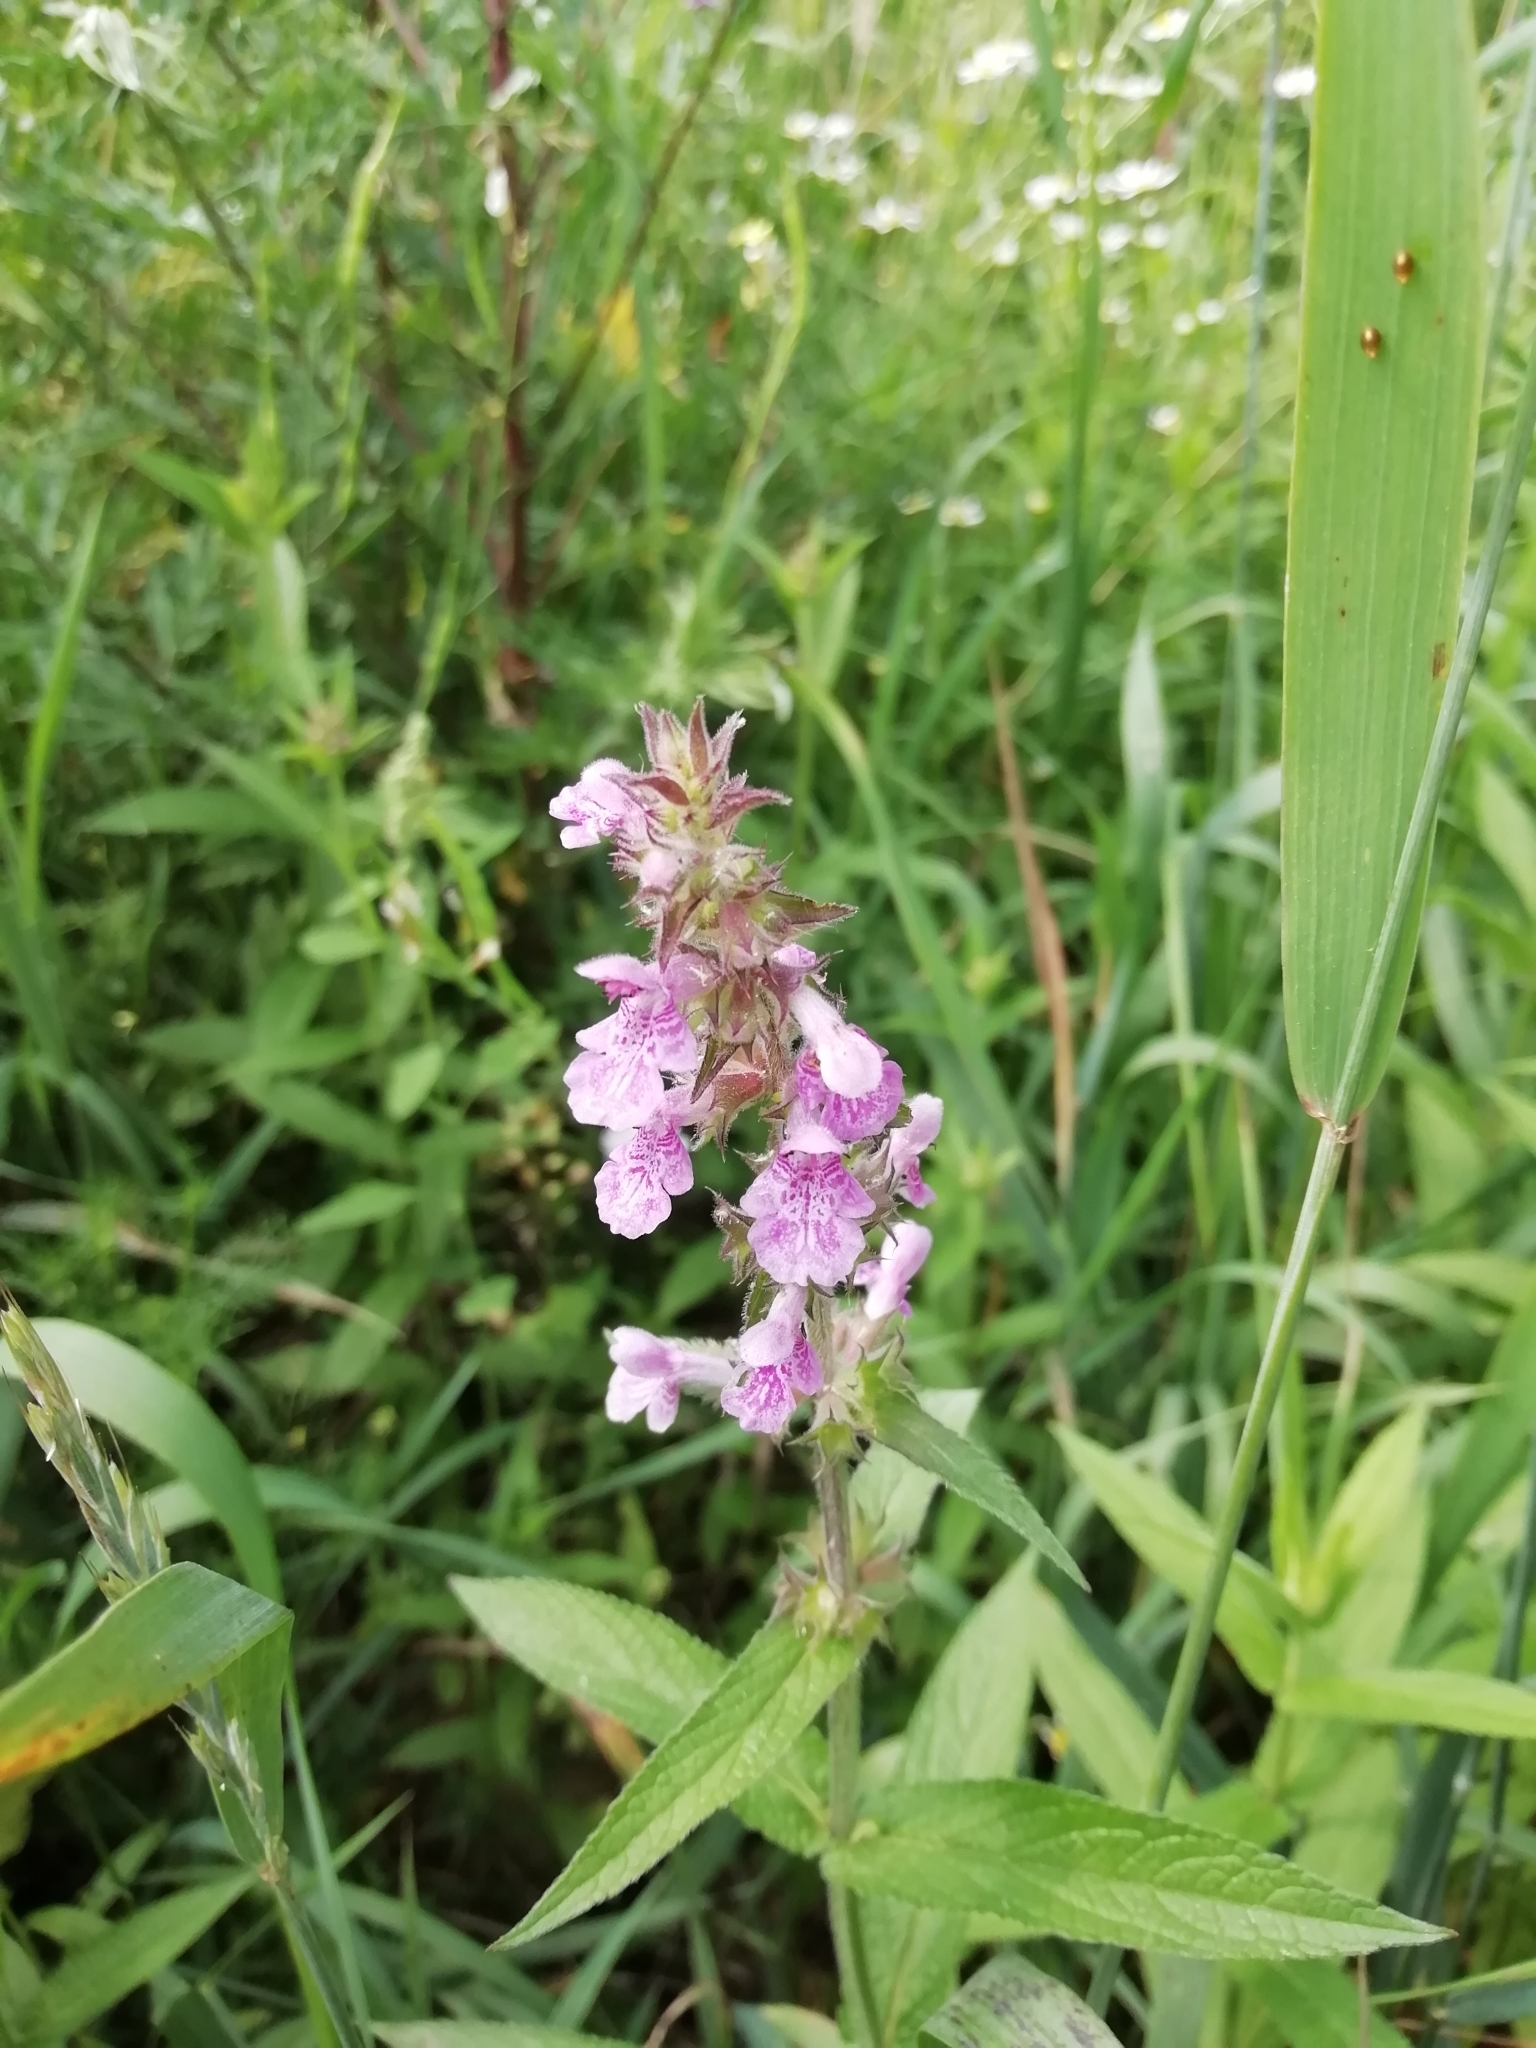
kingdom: Plantae
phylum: Tracheophyta
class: Magnoliopsida
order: Lamiales
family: Lamiaceae
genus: Stachys
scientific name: Stachys palustris
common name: Marsh woundwort
